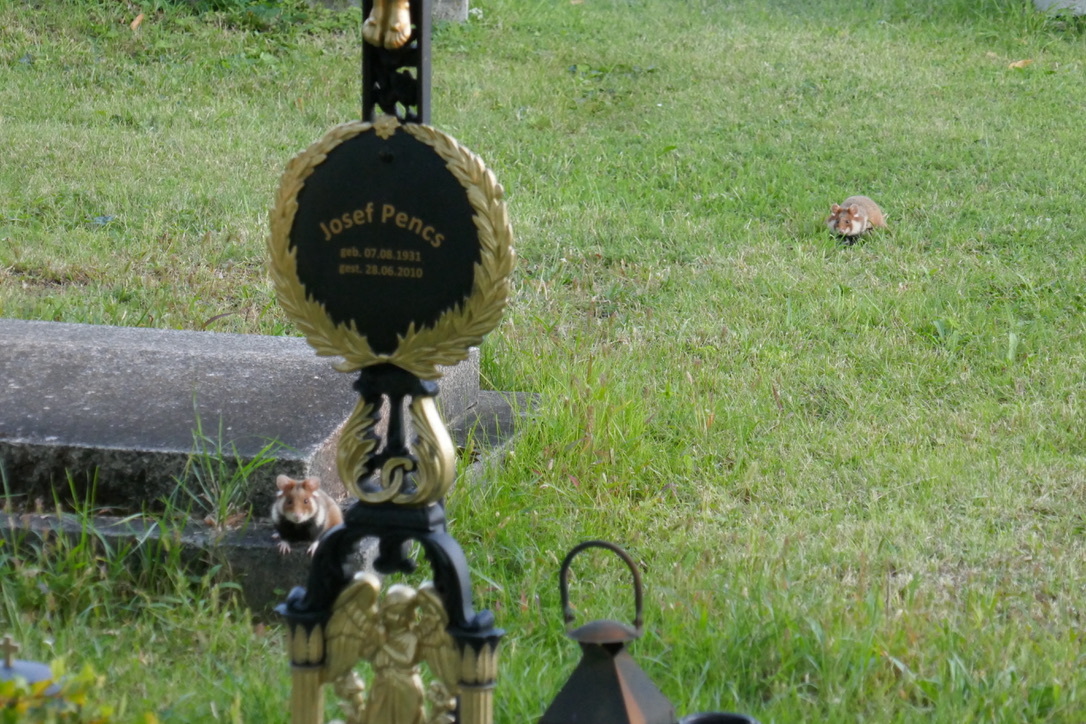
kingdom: Animalia
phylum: Chordata
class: Mammalia
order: Rodentia
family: Cricetidae
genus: Cricetus
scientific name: Cricetus cricetus
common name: Common hamster
